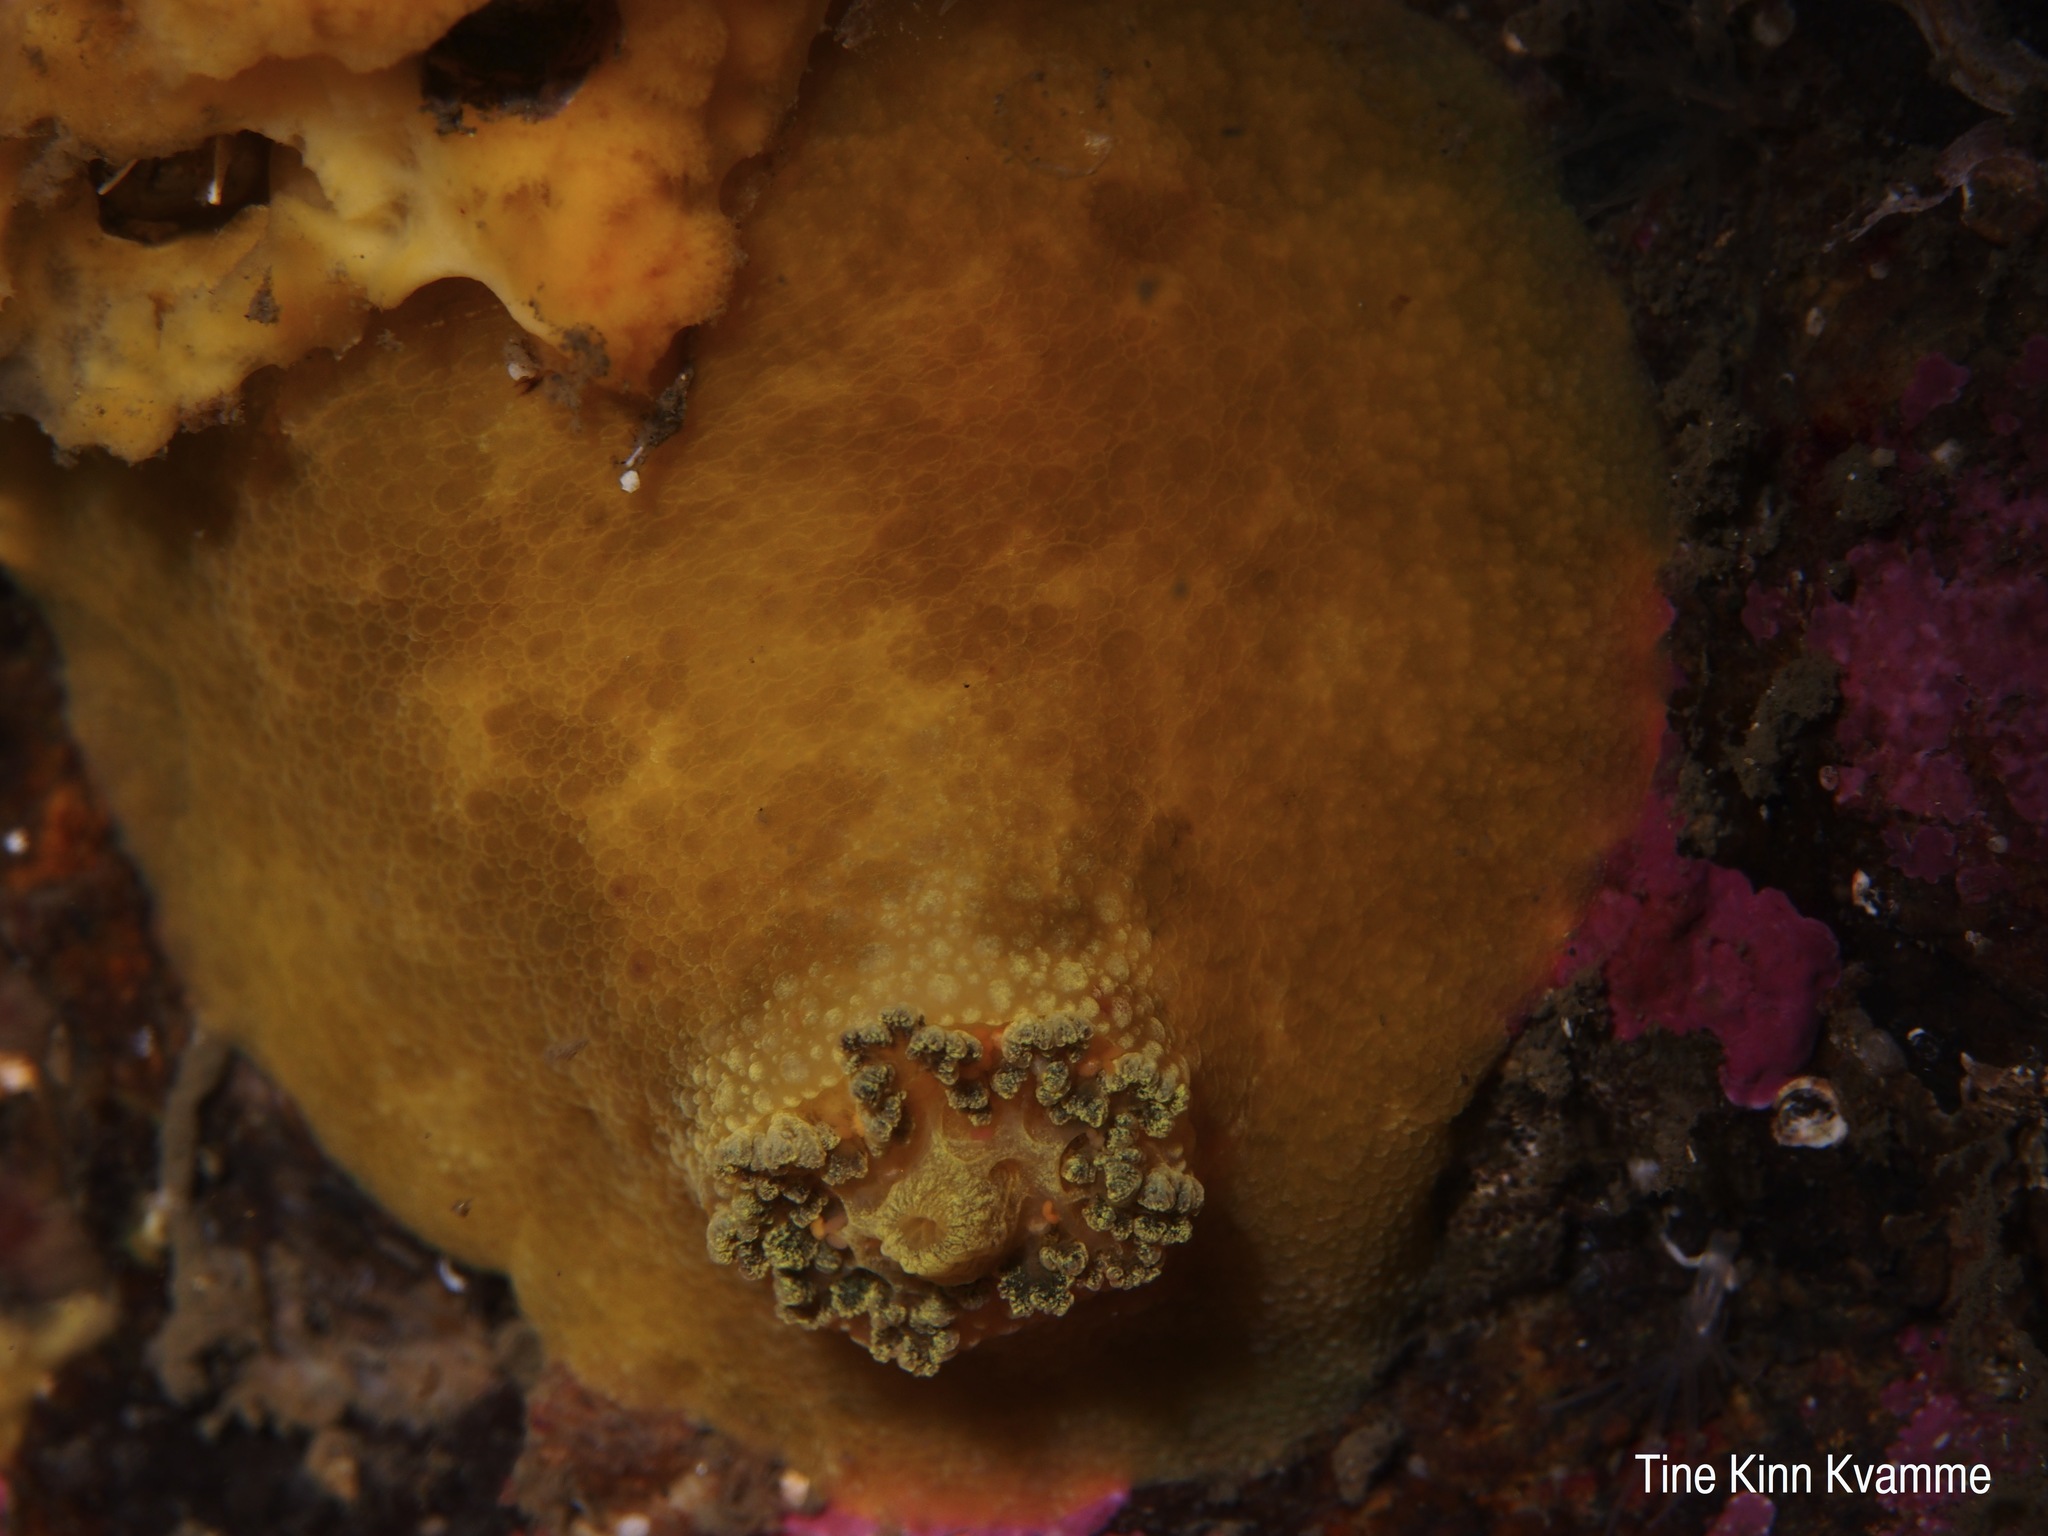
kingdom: Animalia
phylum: Mollusca
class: Gastropoda
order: Nudibranchia
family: Dorididae
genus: Doris
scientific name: Doris pseudoargus
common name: Sea lemon
